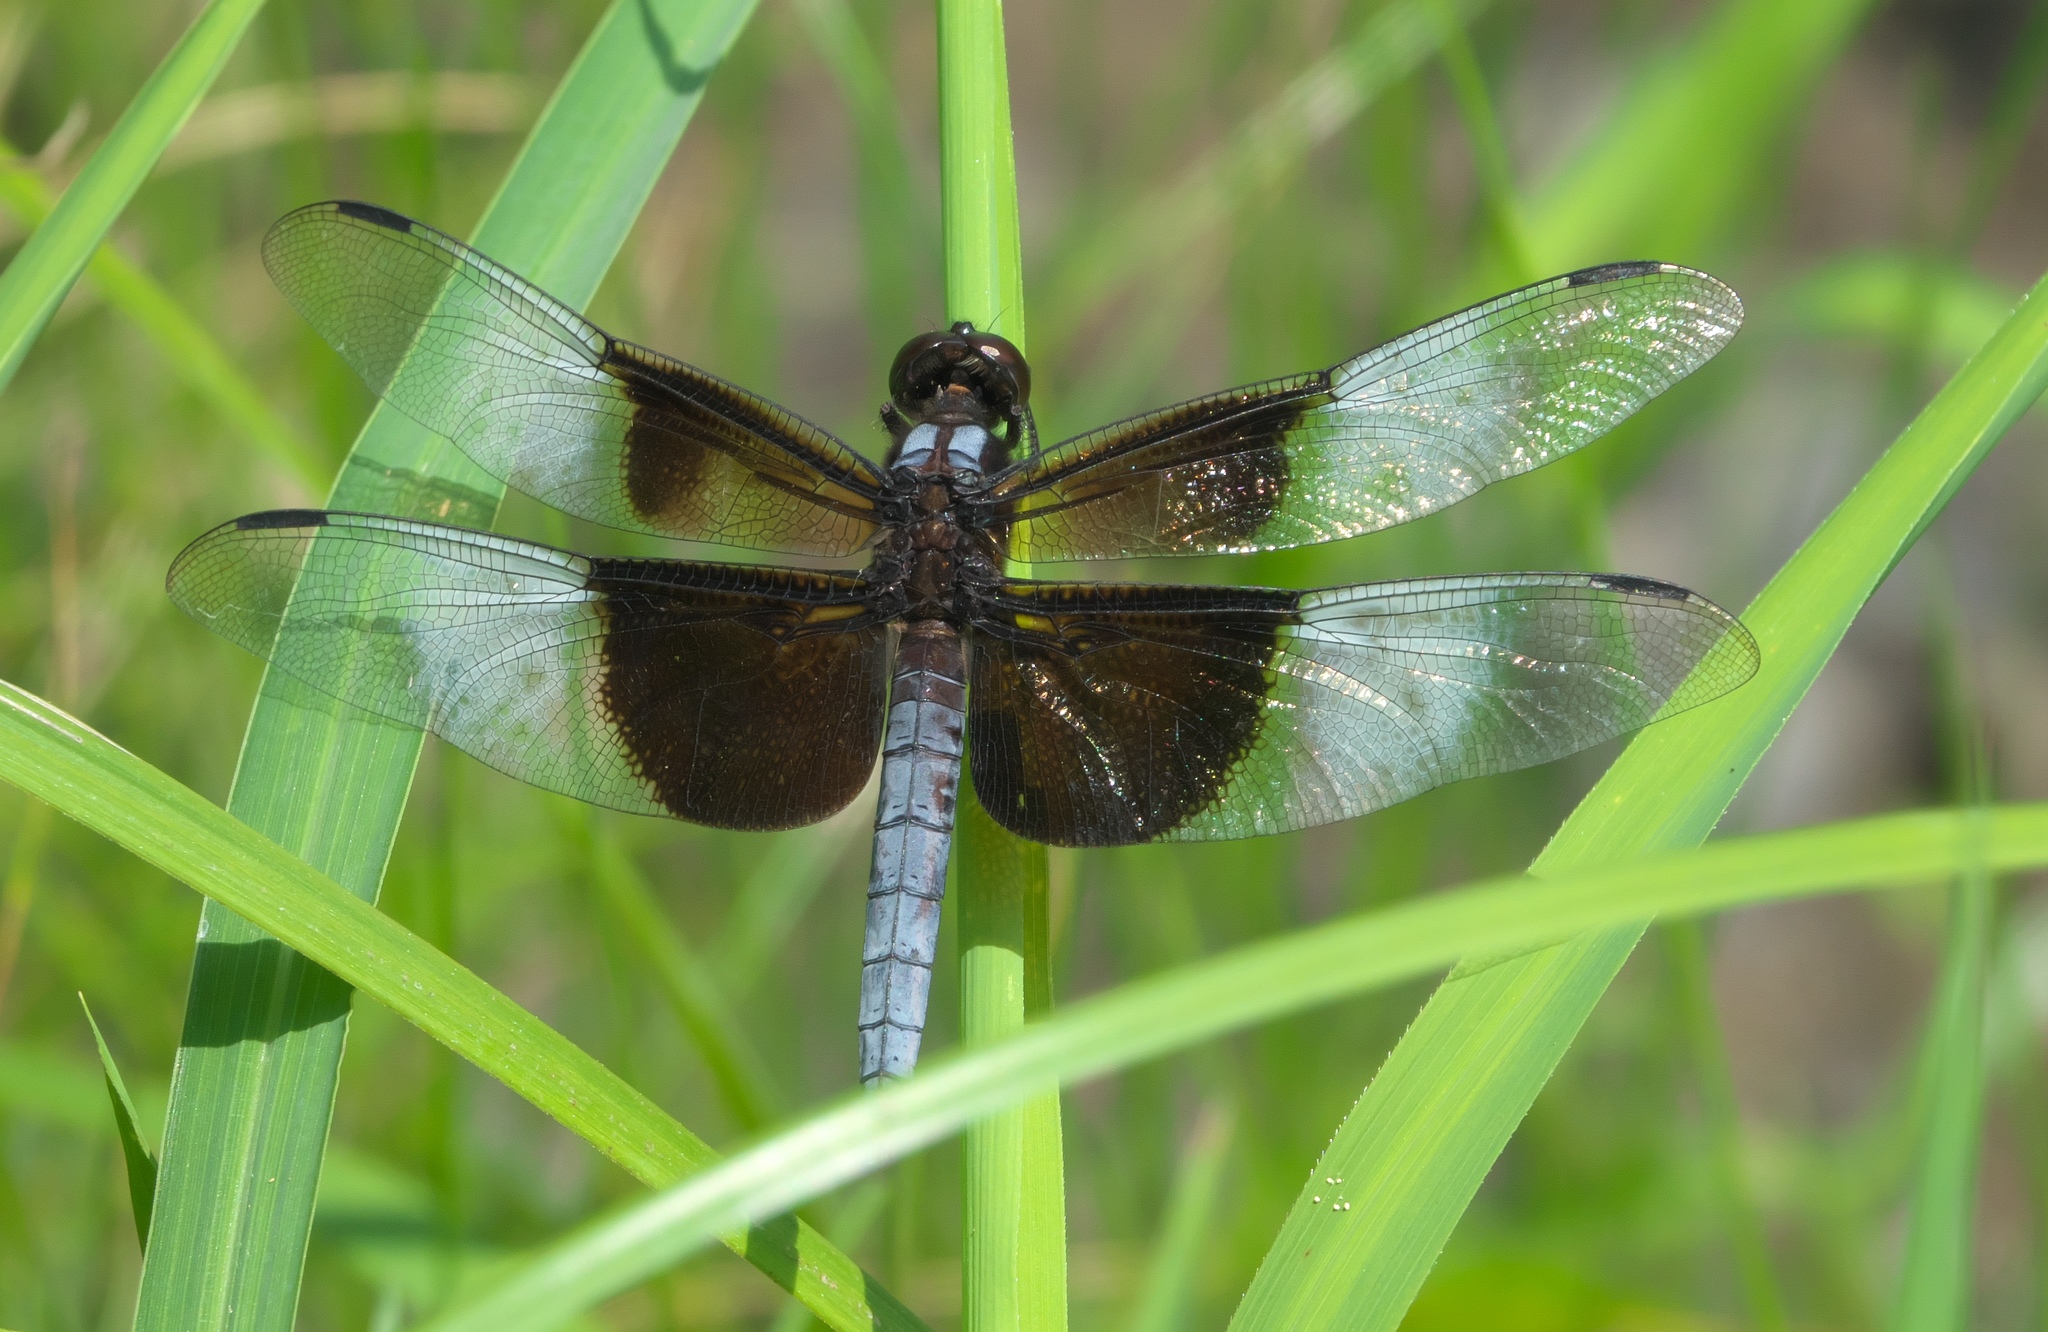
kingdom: Animalia
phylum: Arthropoda
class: Insecta
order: Odonata
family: Libellulidae
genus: Libellula
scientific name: Libellula luctuosa
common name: Widow skimmer
